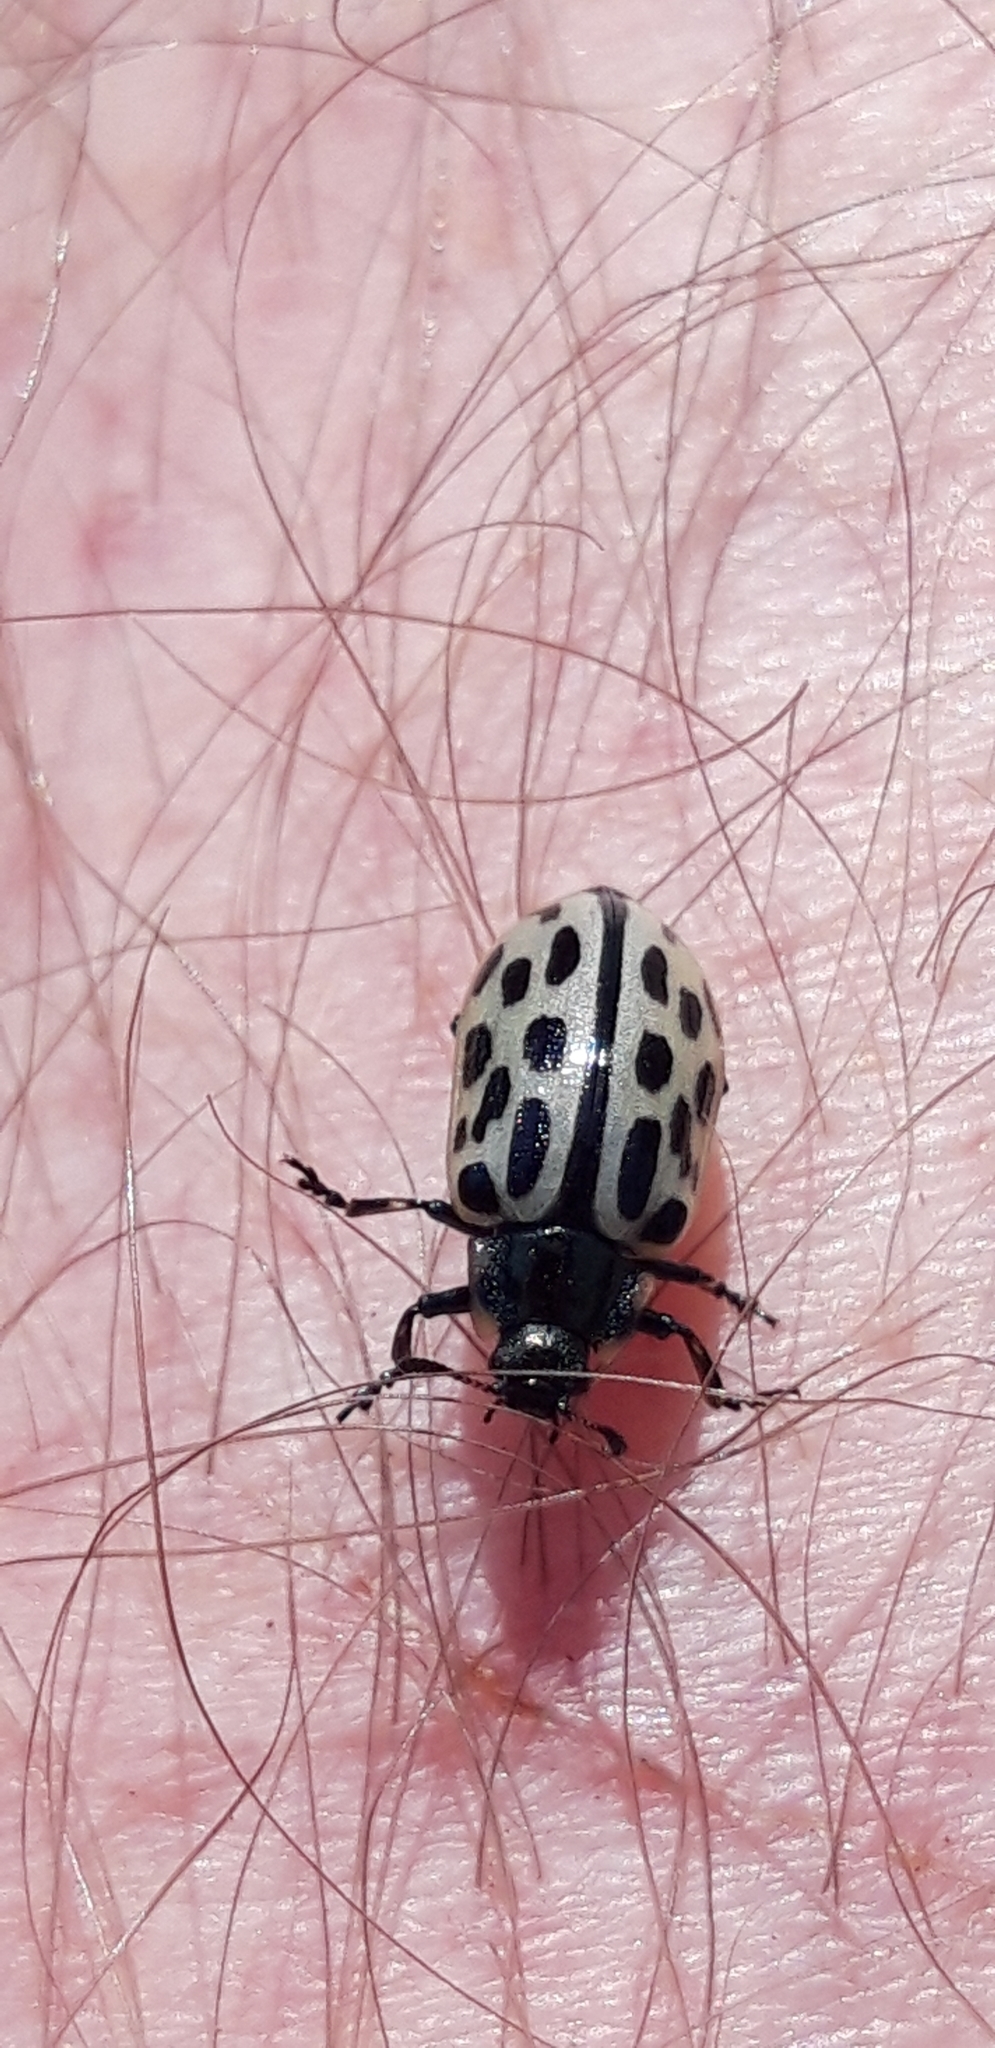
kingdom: Animalia
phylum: Arthropoda
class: Insecta
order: Coleoptera
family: Chrysomelidae
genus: Chrysomela
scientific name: Chrysomela vigintipunctata
